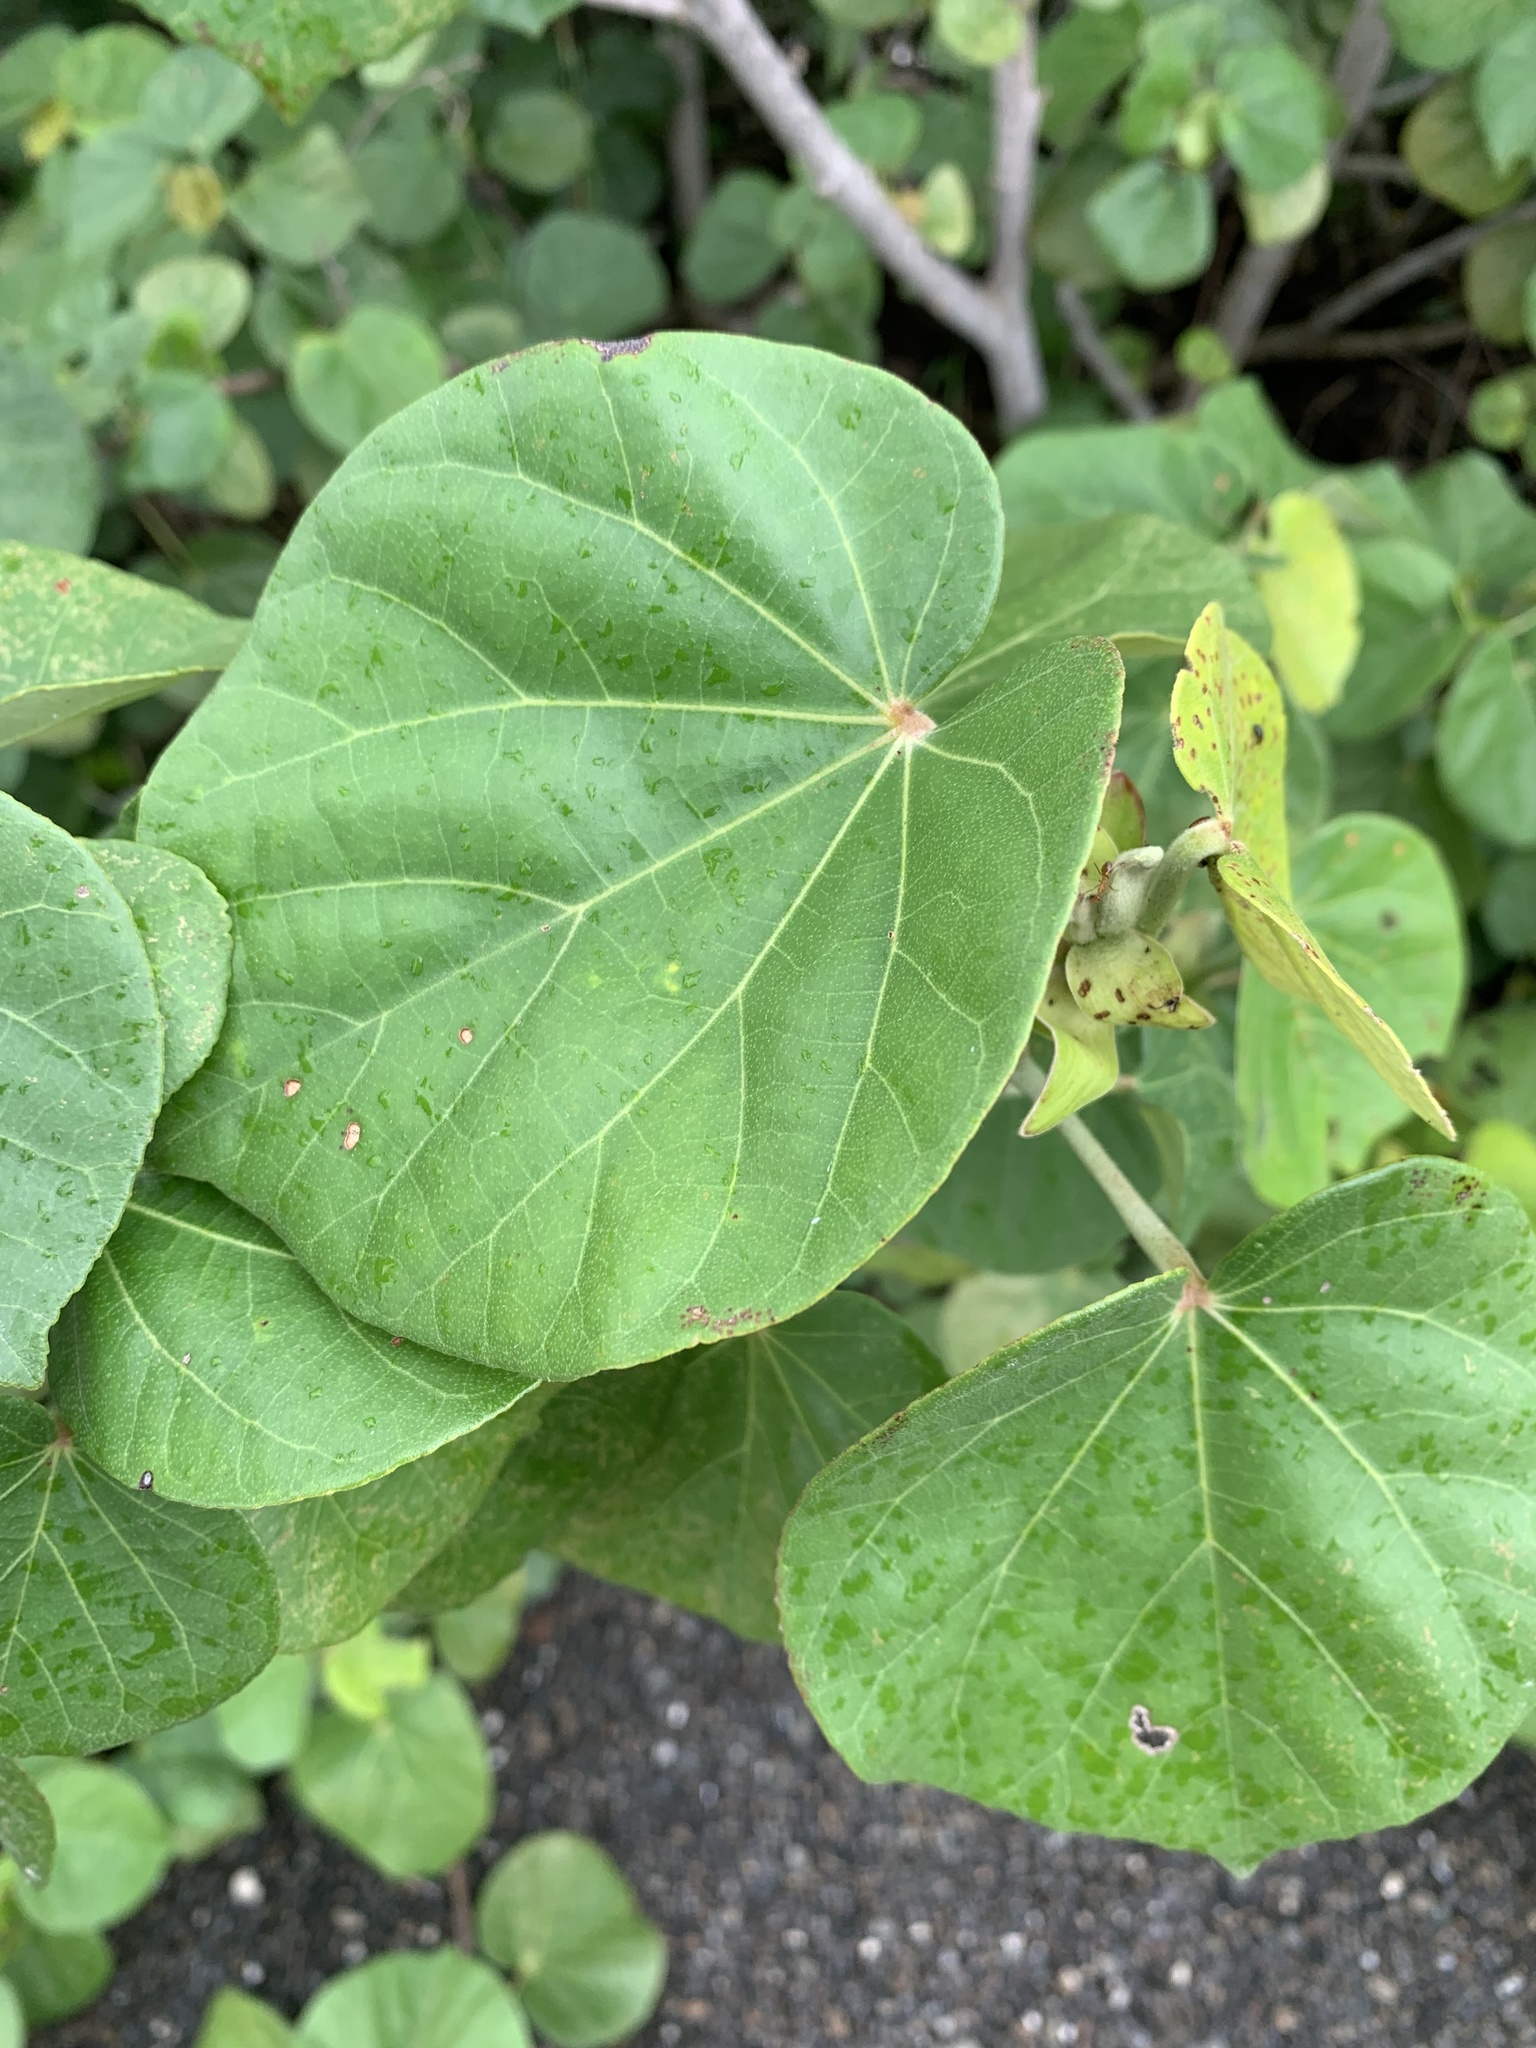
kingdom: Plantae
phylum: Tracheophyta
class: Magnoliopsida
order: Malvales
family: Malvaceae
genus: Talipariti
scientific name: Talipariti tiliaceum
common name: Sea hibiscus
